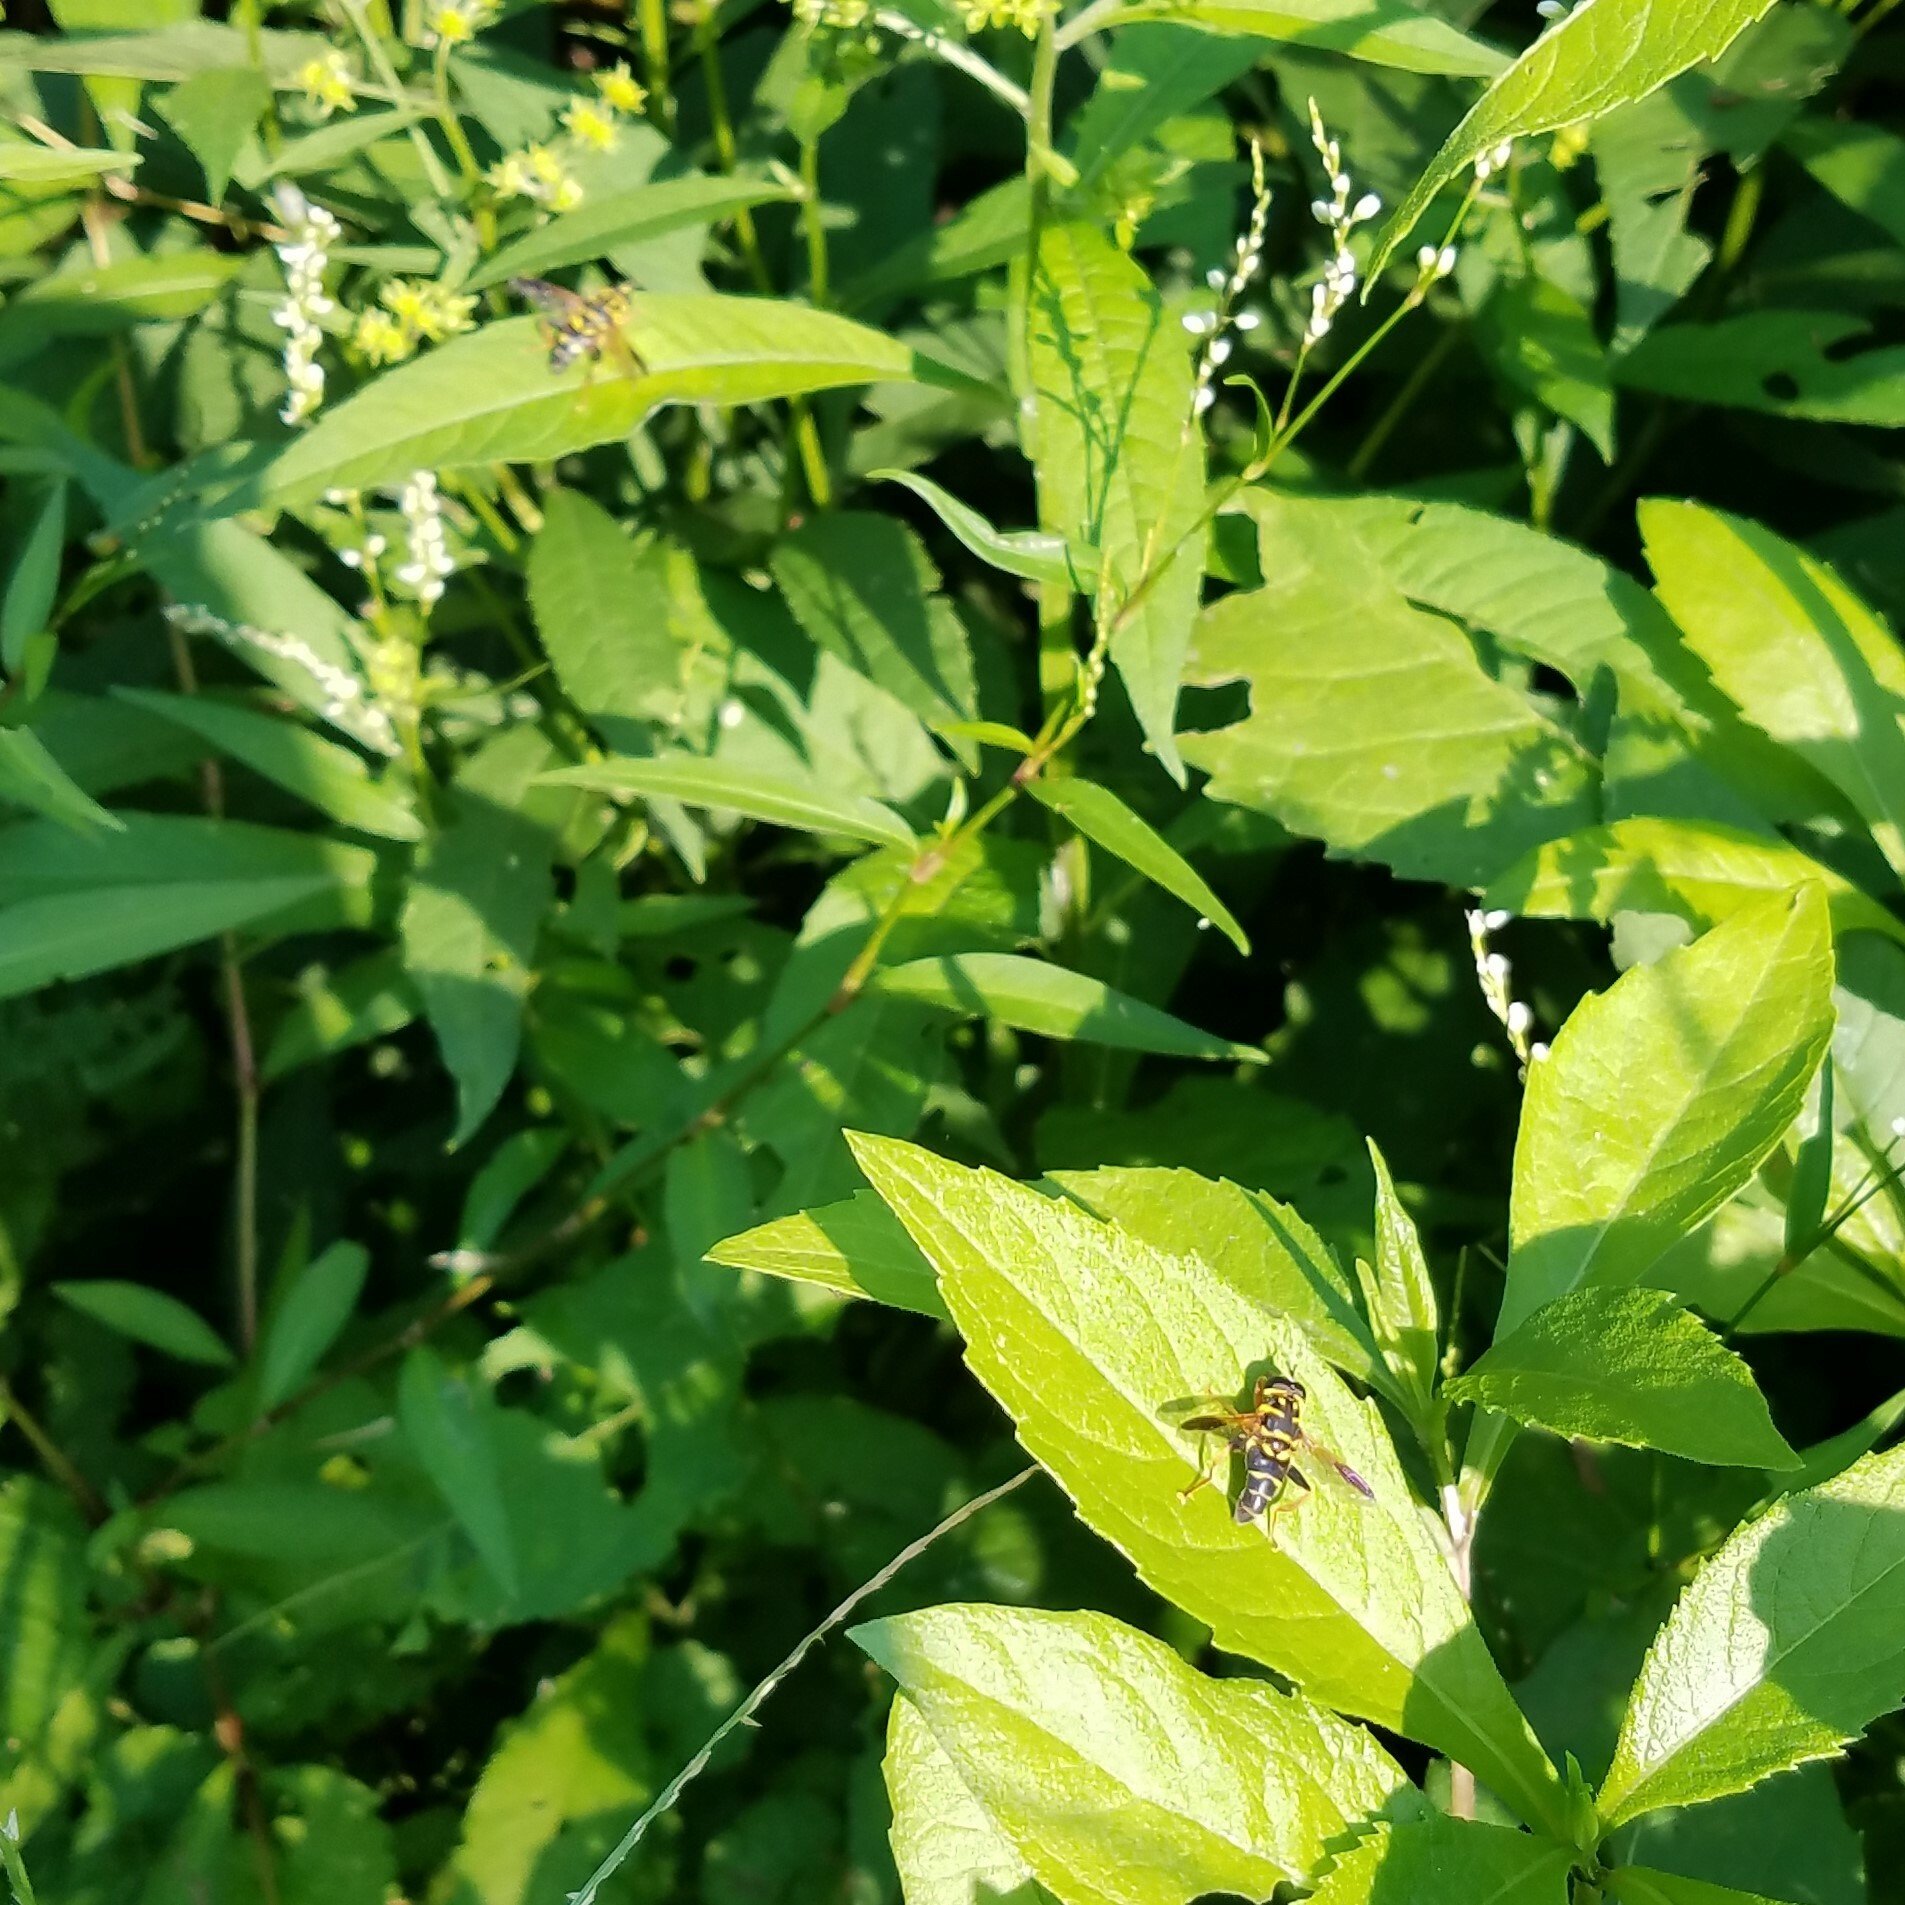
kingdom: Animalia
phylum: Arthropoda
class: Insecta
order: Diptera
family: Syrphidae
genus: Meromacrus
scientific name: Meromacrus acutus
